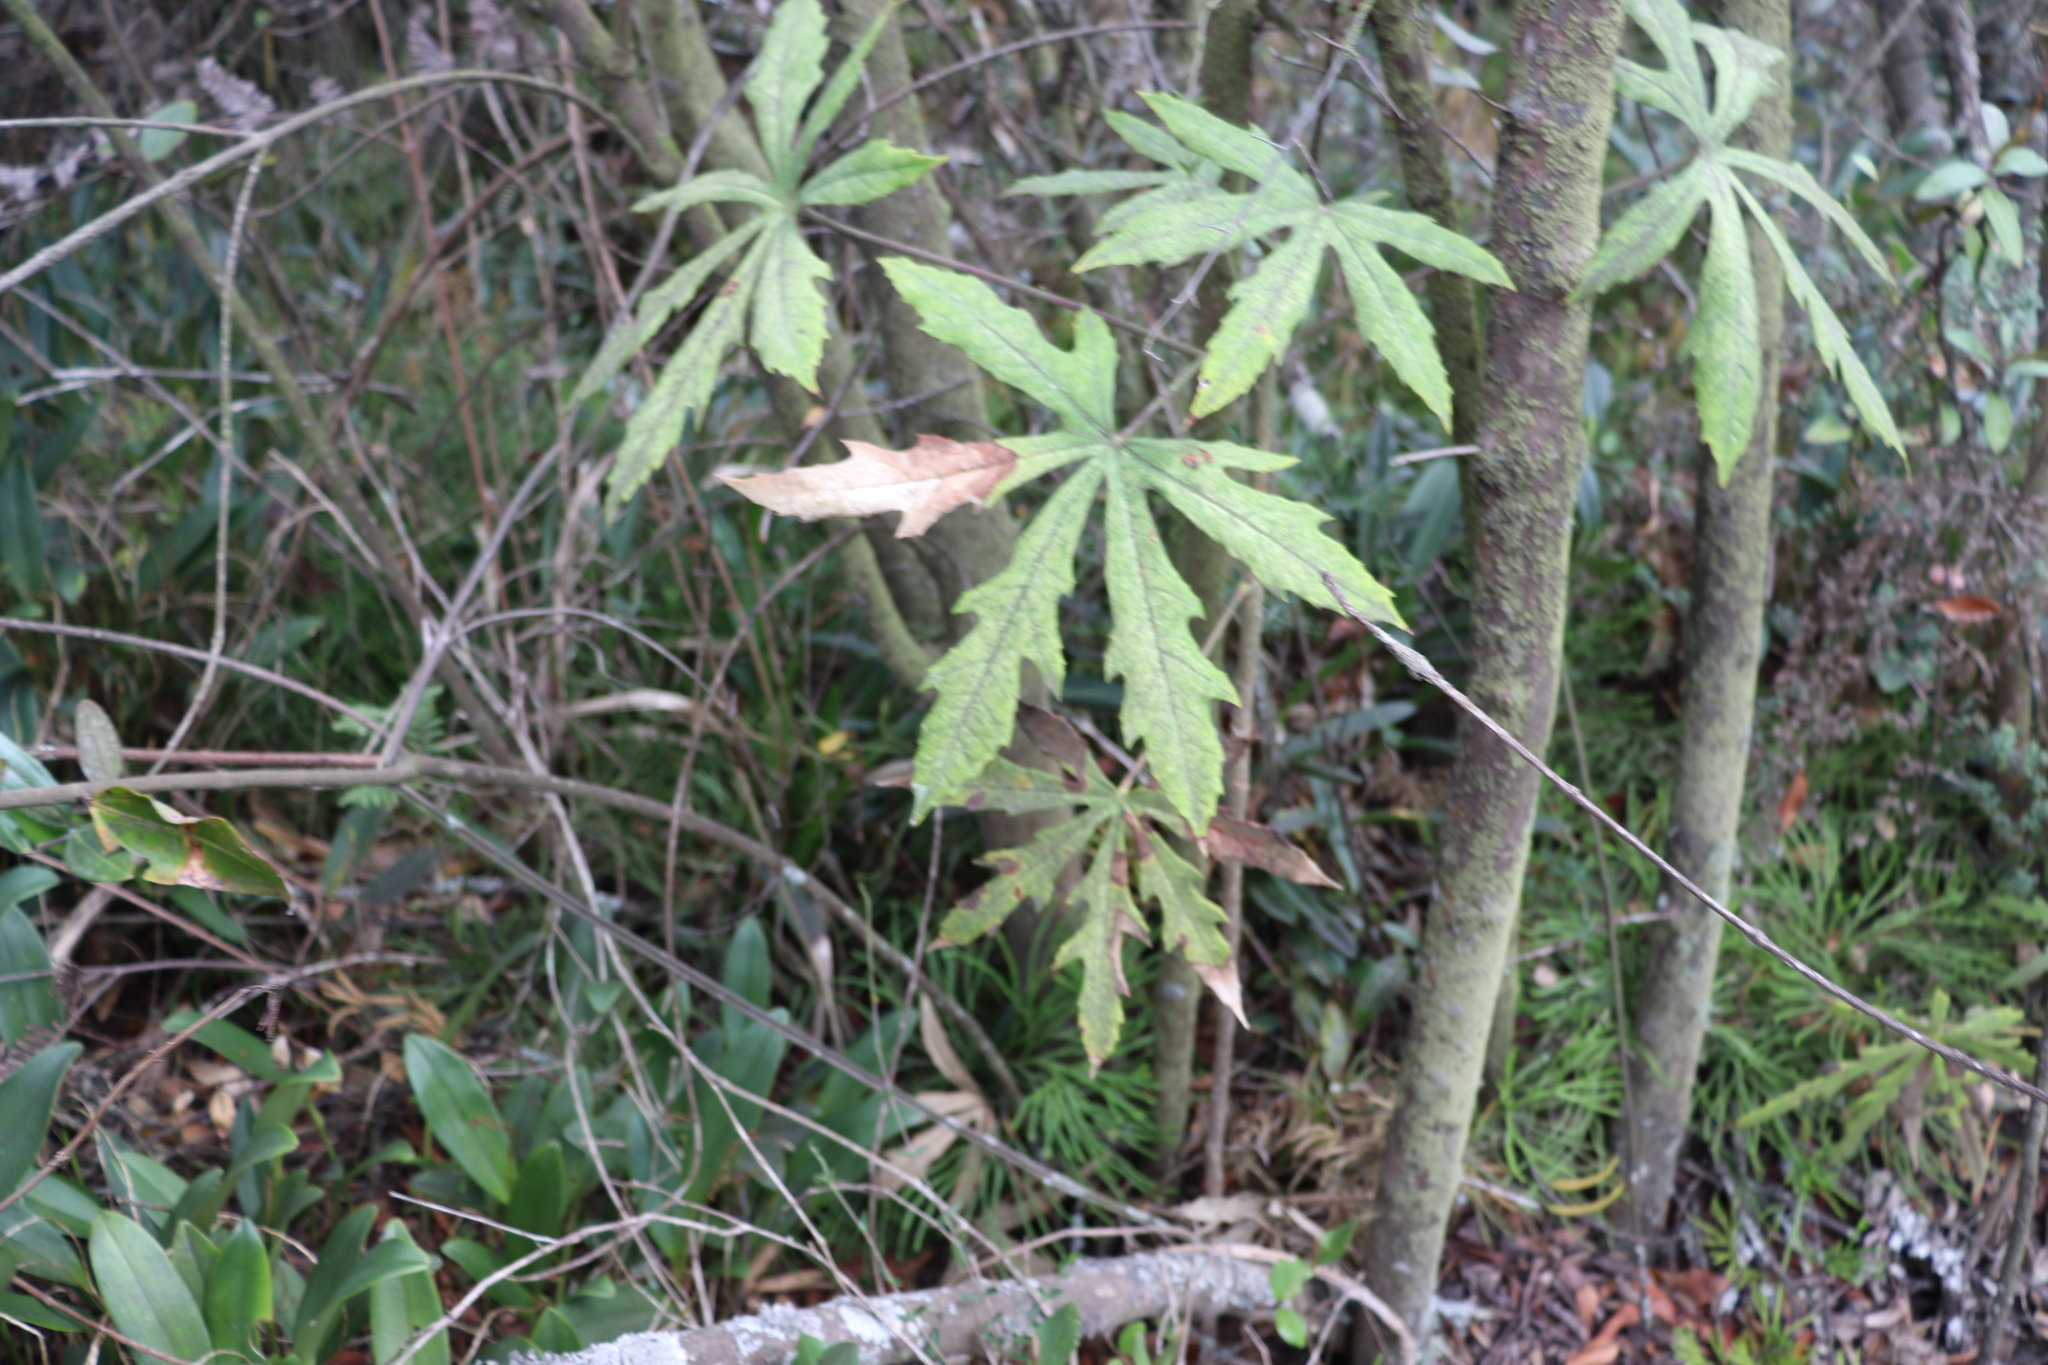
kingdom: Plantae
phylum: Tracheophyta
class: Magnoliopsida
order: Apiales
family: Araliaceae
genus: Oreopanax
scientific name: Oreopanax incisus
